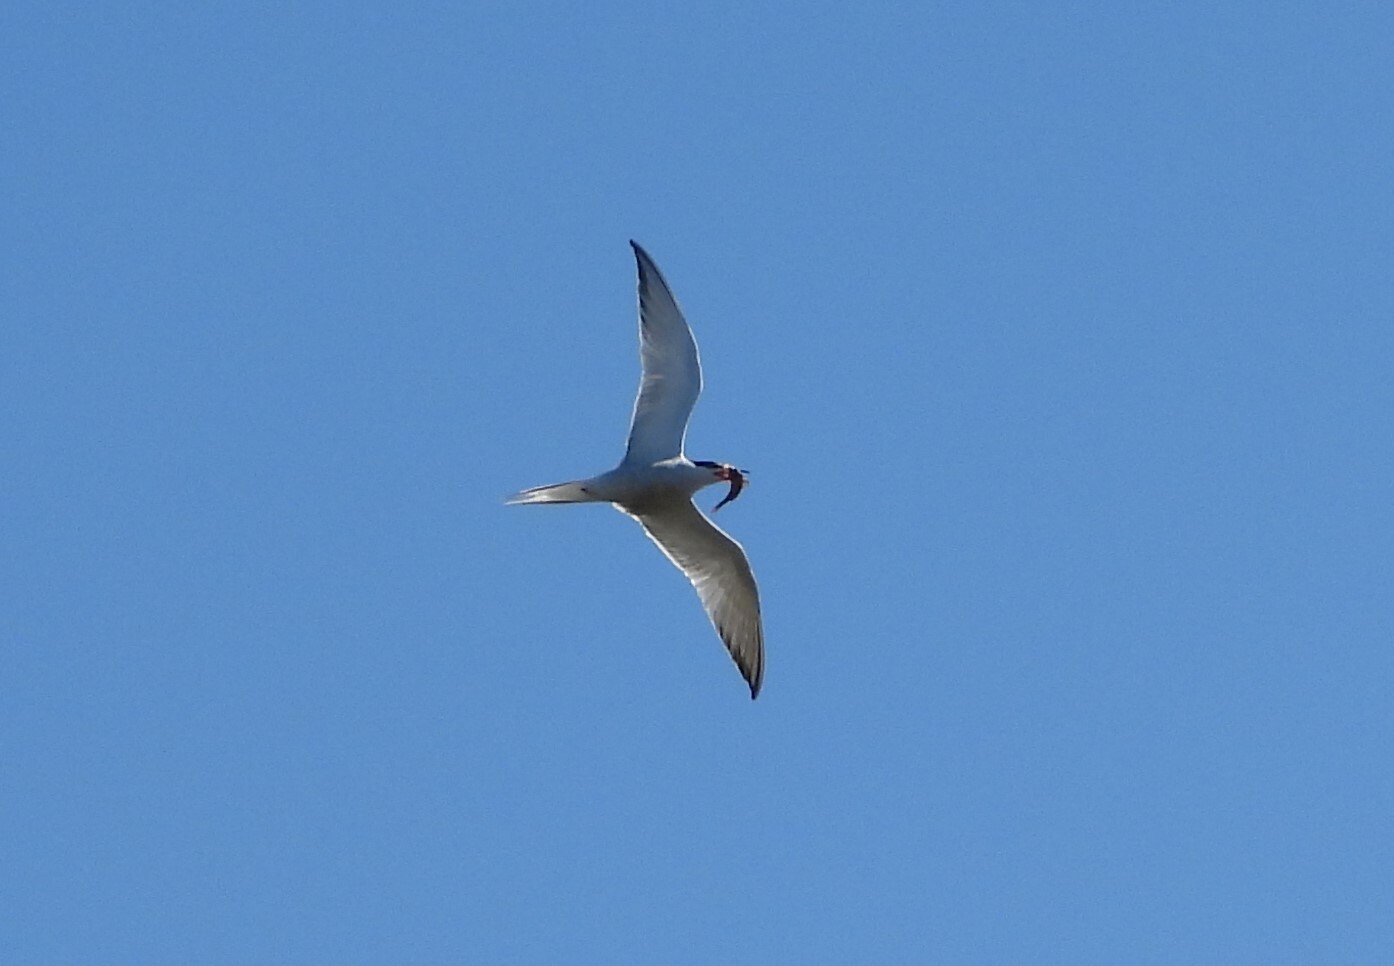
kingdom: Animalia
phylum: Chordata
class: Aves
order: Charadriiformes
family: Laridae
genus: Sterna
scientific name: Sterna hirundo
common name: Common tern
